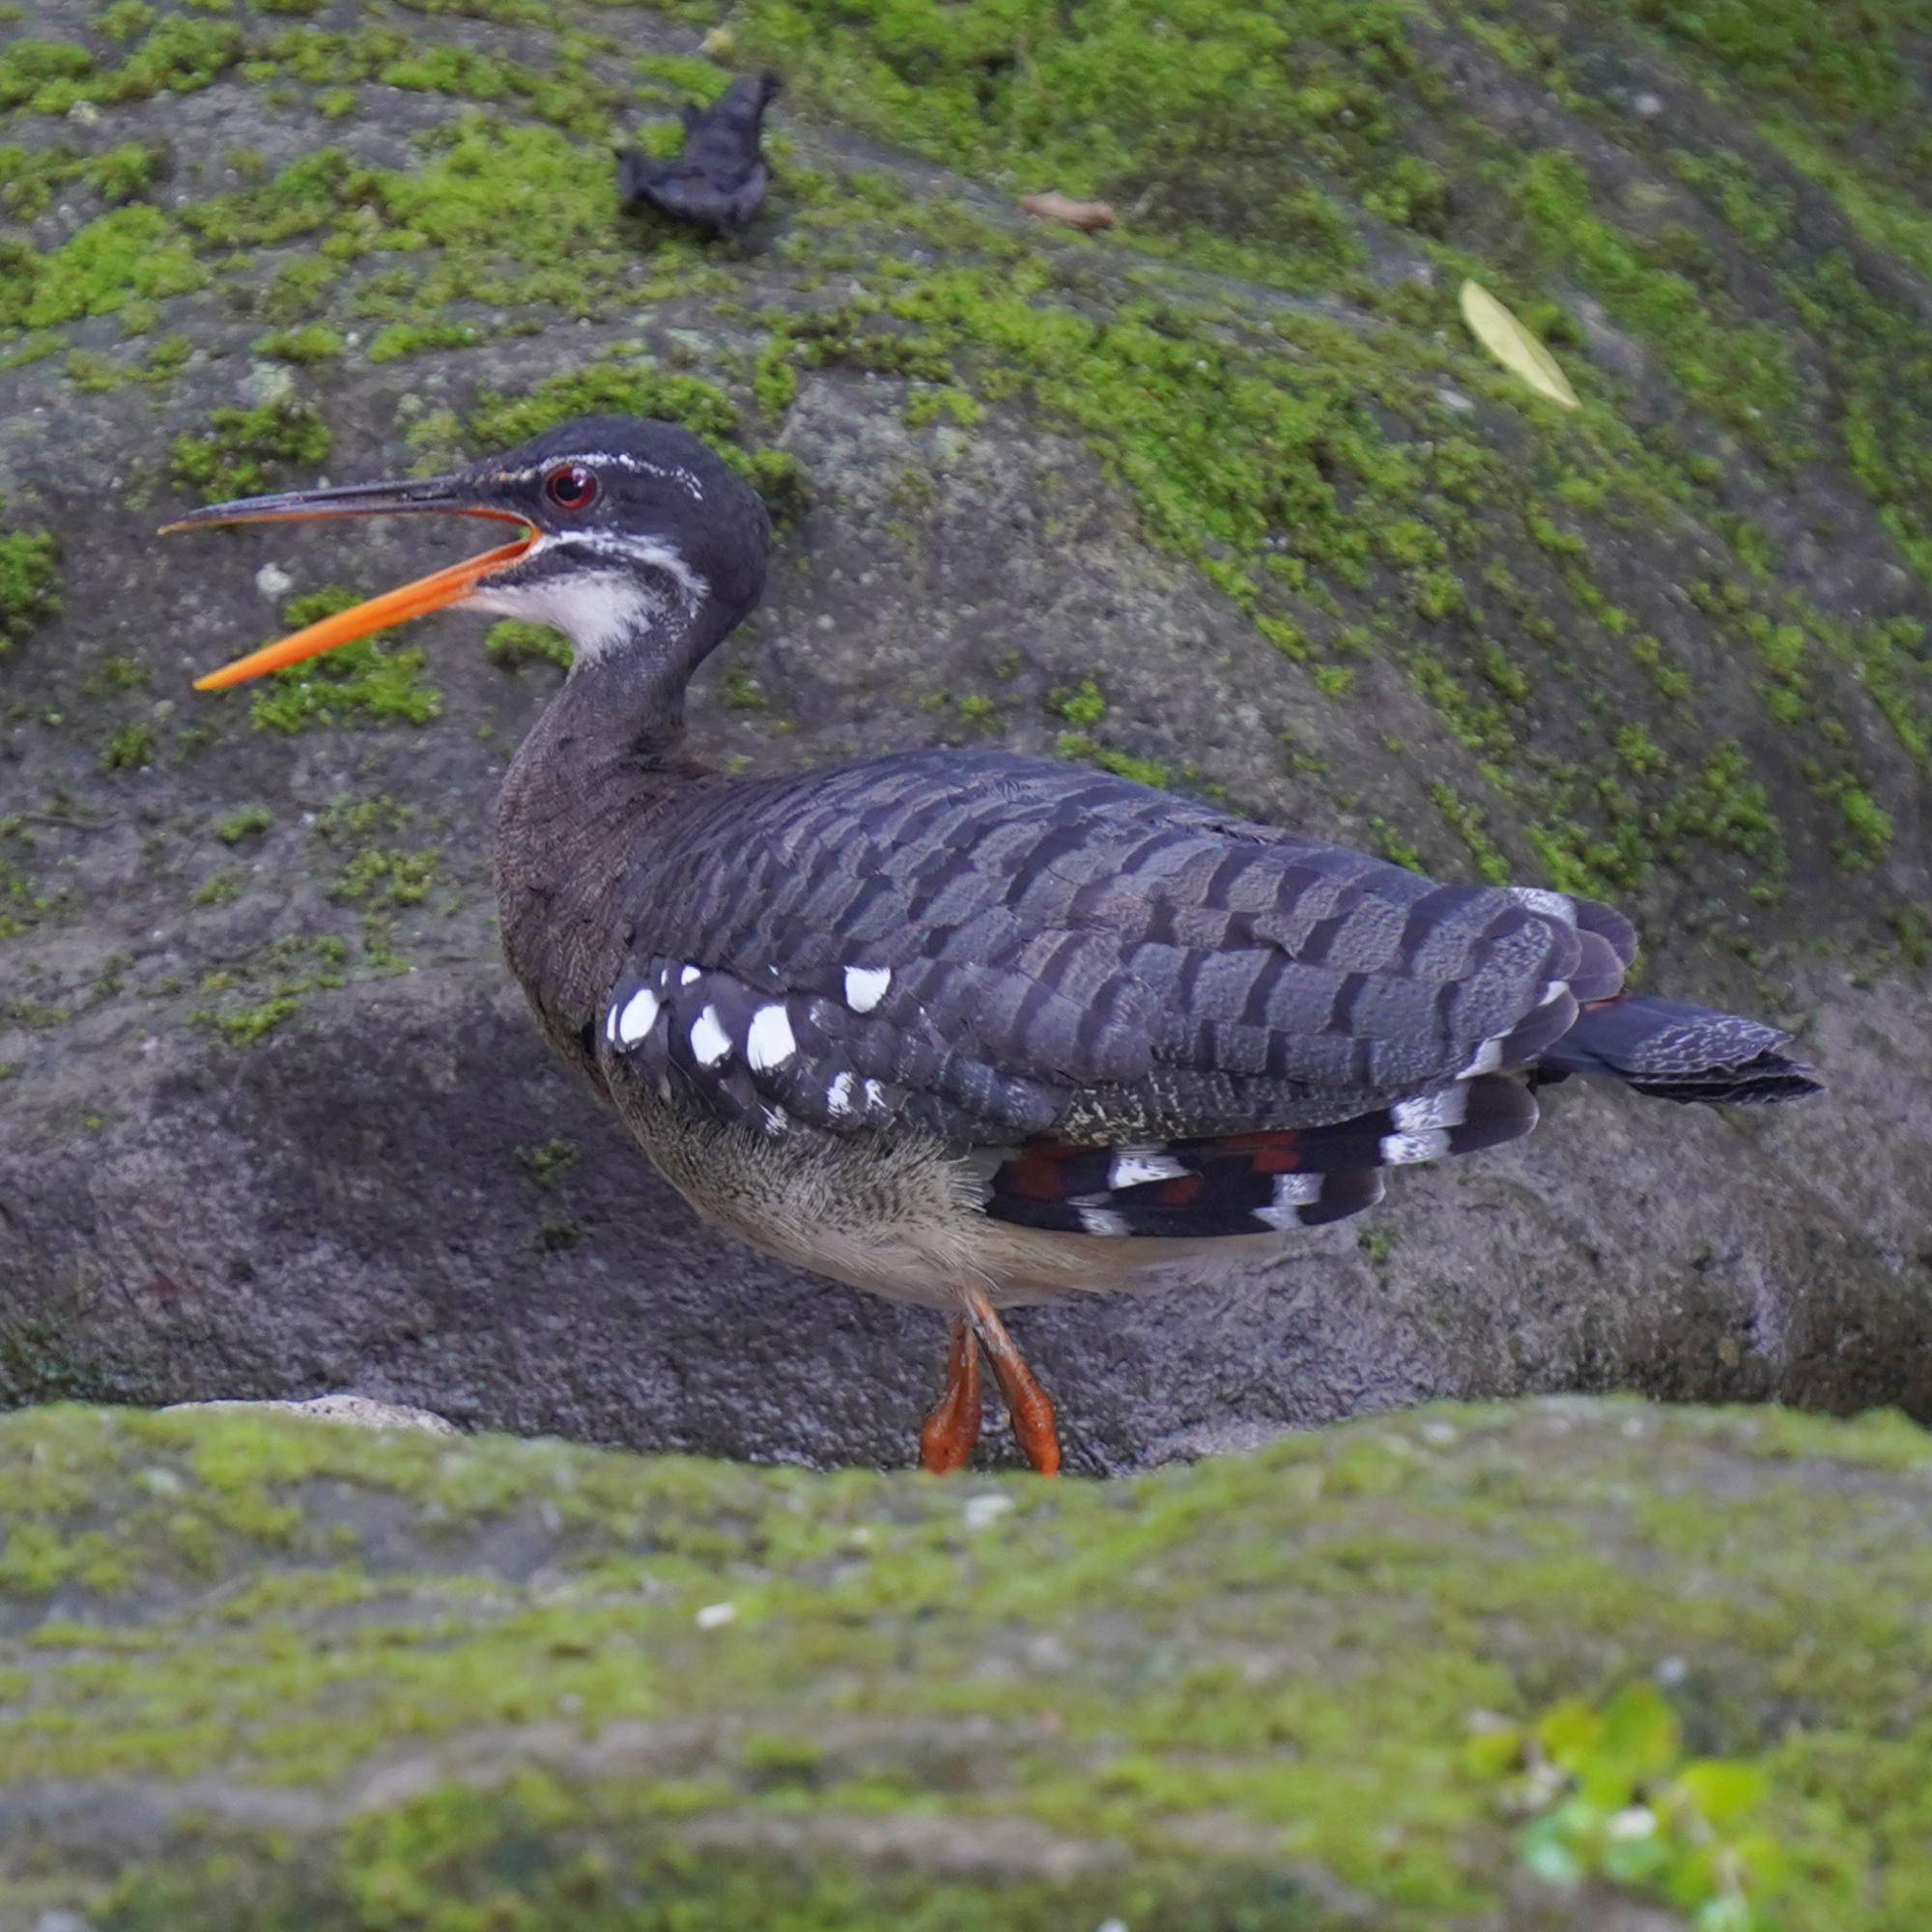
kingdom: Animalia
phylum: Chordata
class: Aves
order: Eurypygiformes
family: Eurypygidae
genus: Eurypyga
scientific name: Eurypyga helias
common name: Sunbittern
